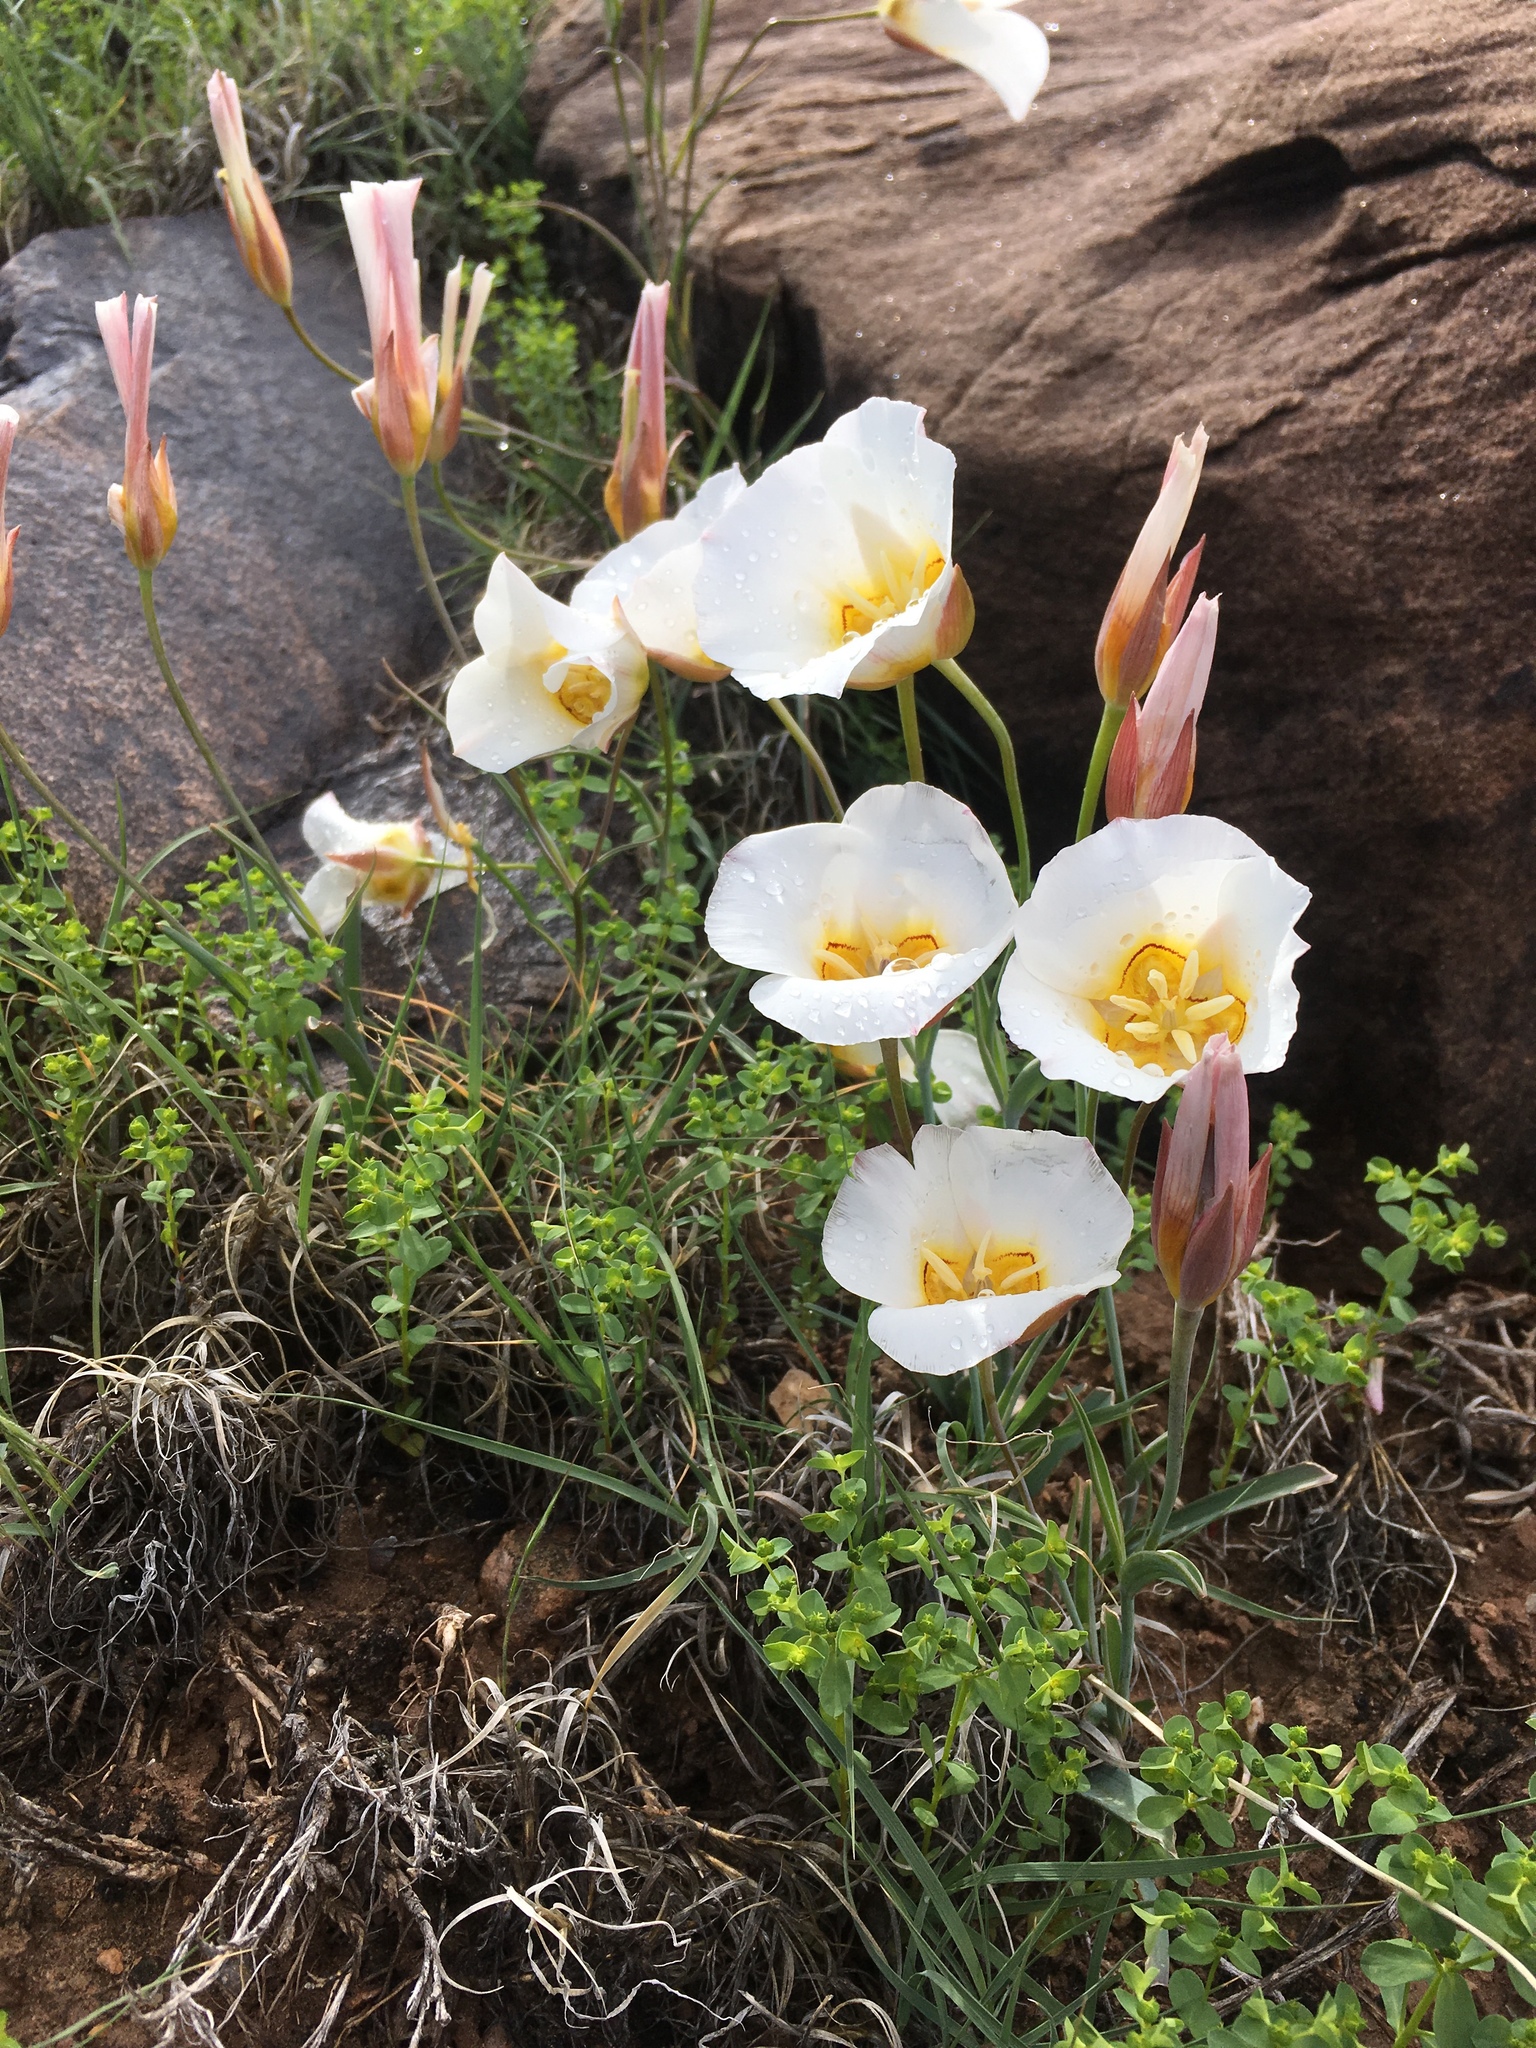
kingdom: Plantae
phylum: Tracheophyta
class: Liliopsida
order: Liliales
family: Liliaceae
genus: Calochortus
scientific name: Calochortus nuttallii
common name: Sego-lily
